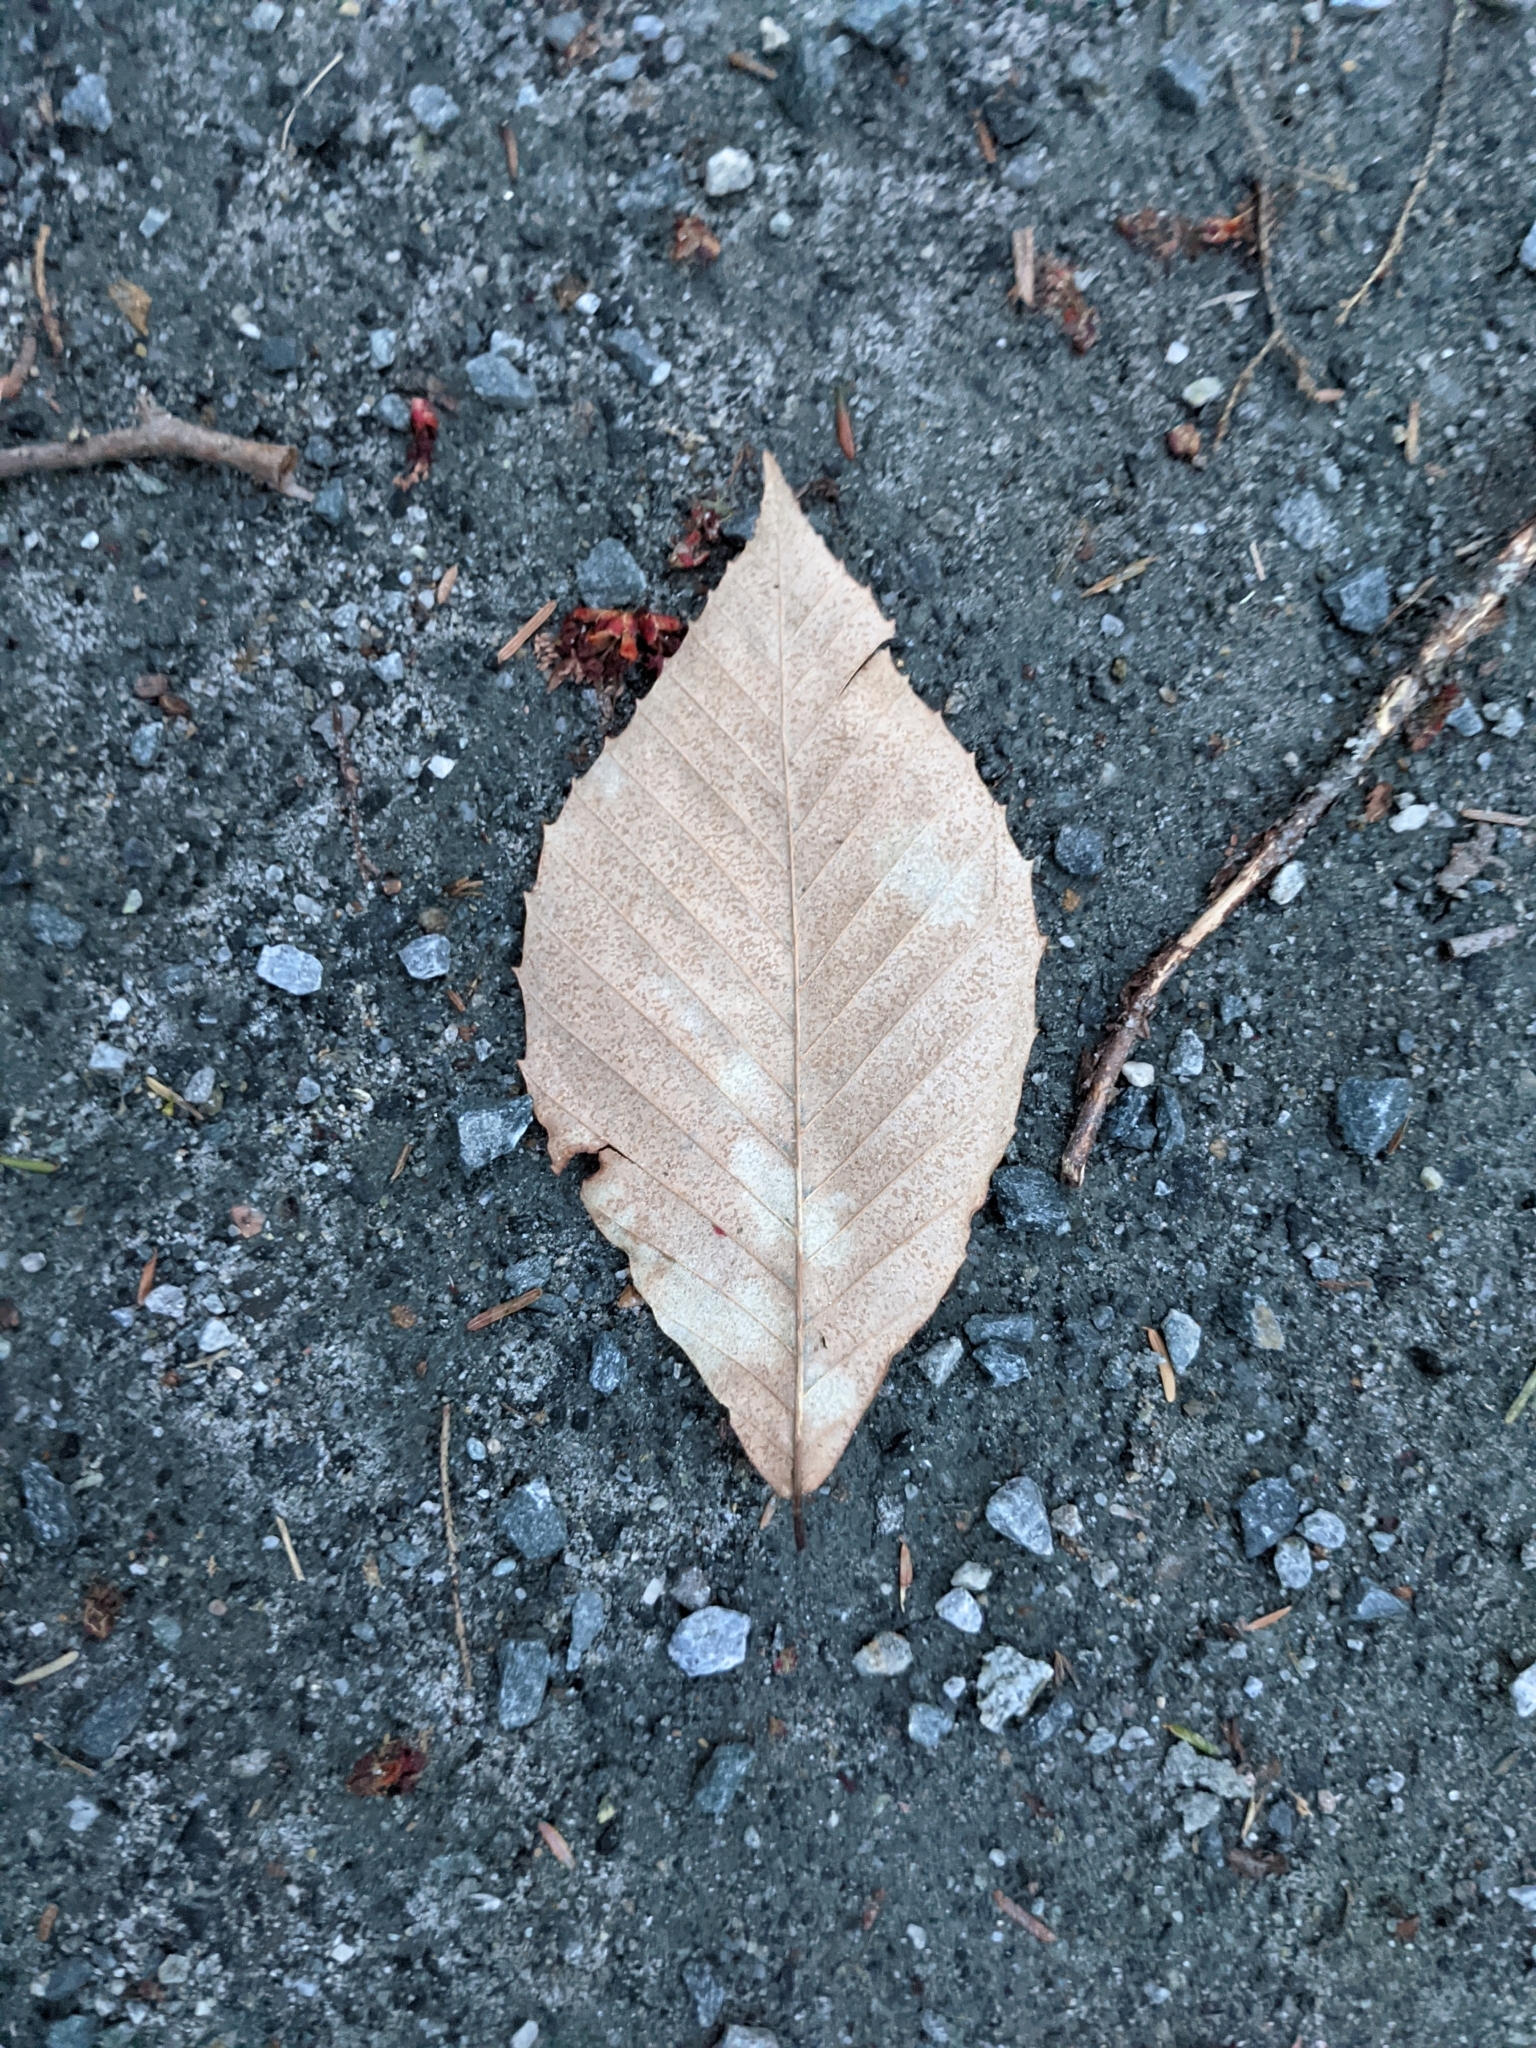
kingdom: Plantae
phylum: Tracheophyta
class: Magnoliopsida
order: Fagales
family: Fagaceae
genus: Fagus
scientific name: Fagus grandifolia
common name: American beech
